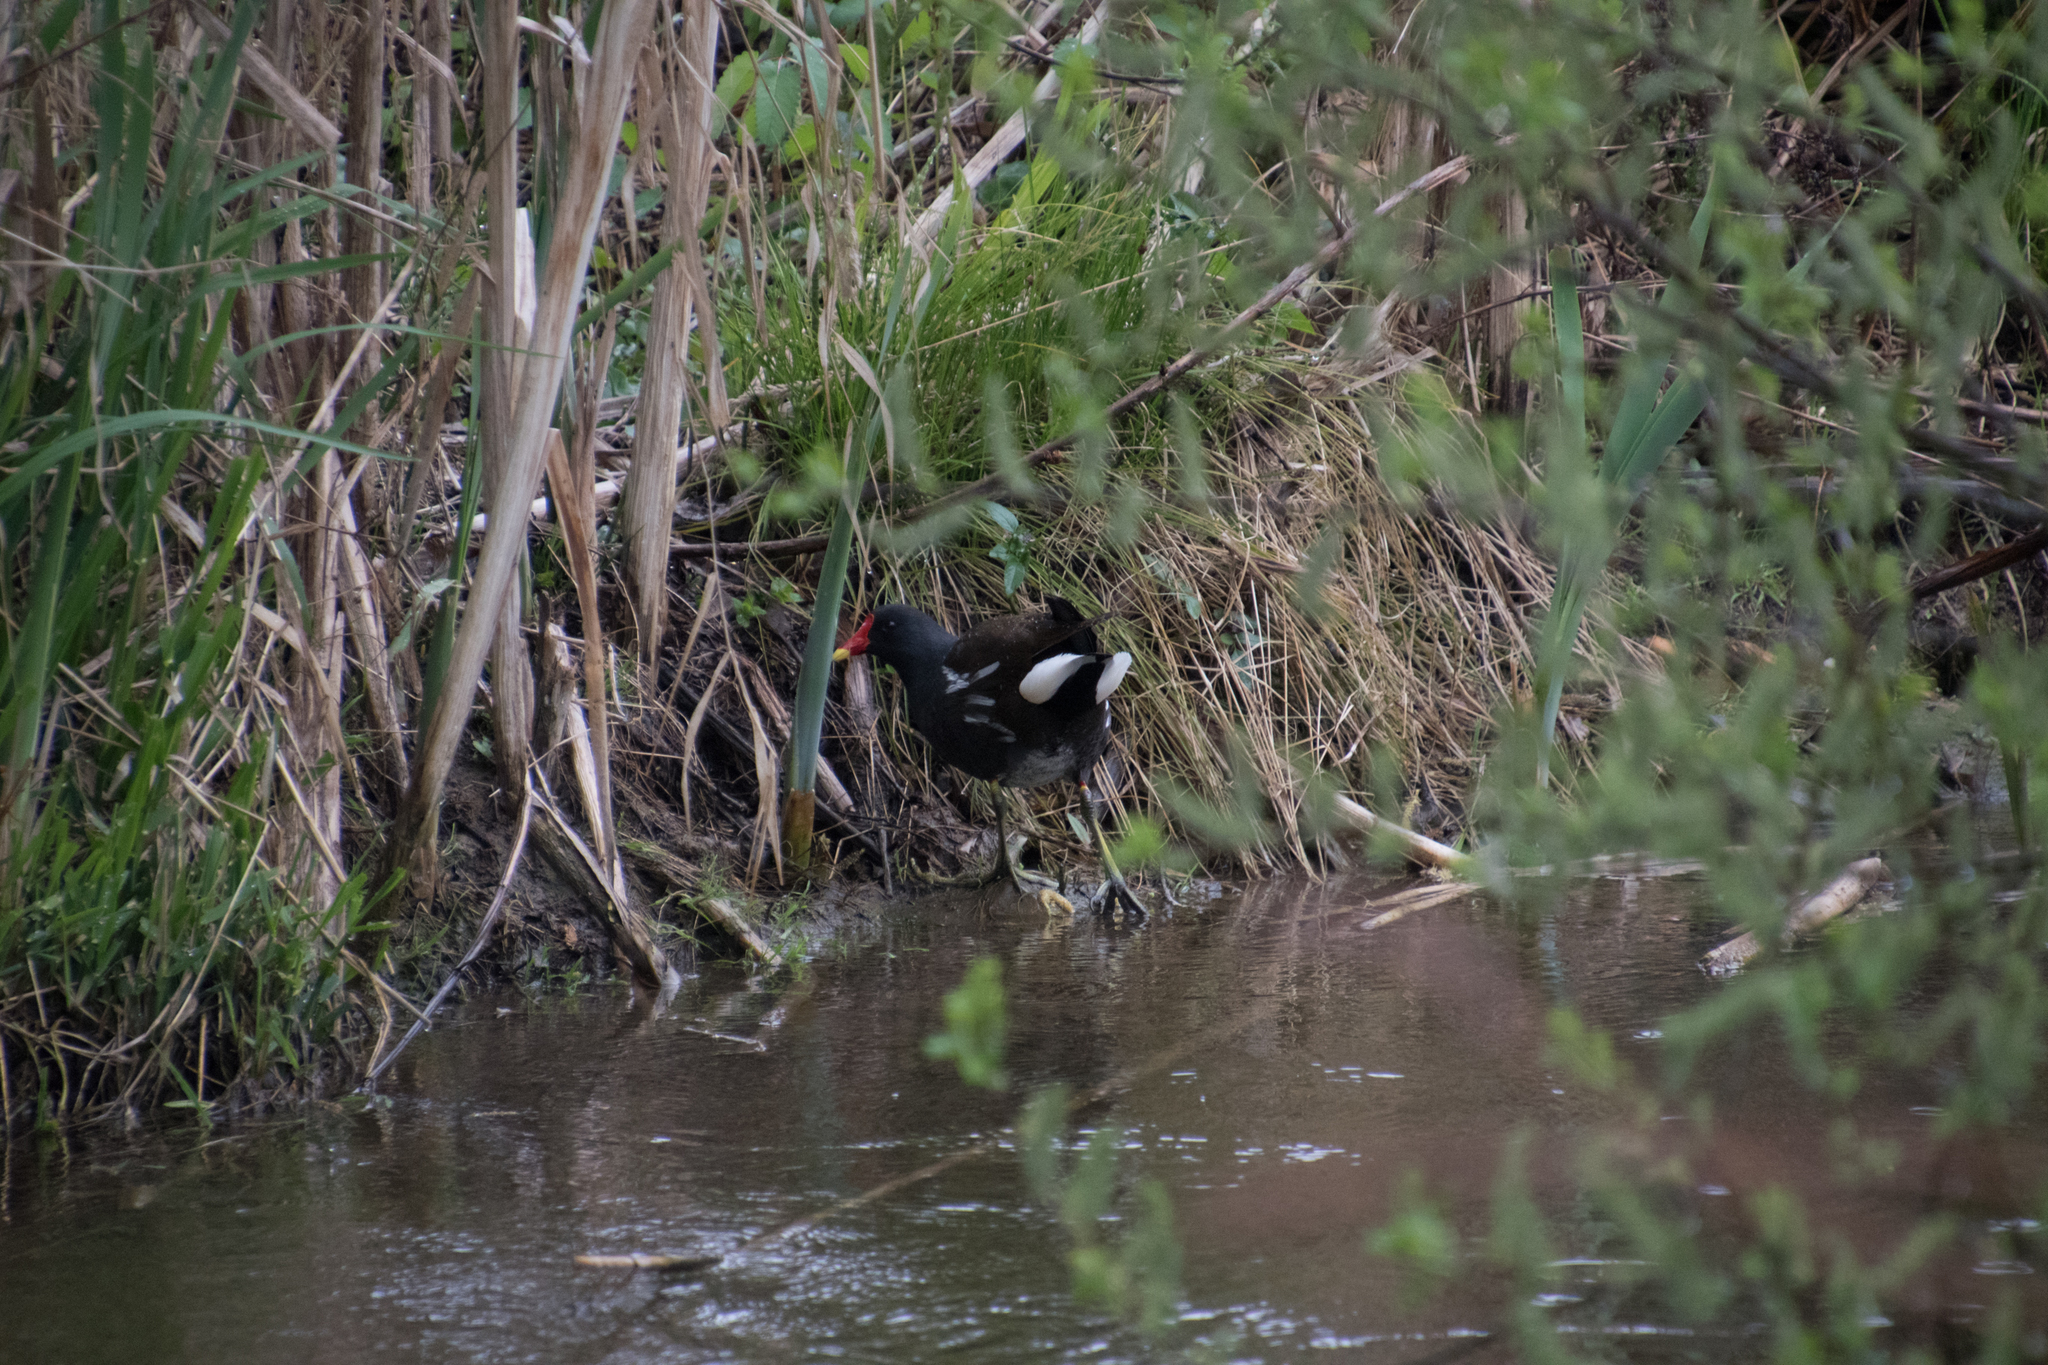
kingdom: Animalia
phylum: Chordata
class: Aves
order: Gruiformes
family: Rallidae
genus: Gallinula
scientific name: Gallinula chloropus
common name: Common moorhen
